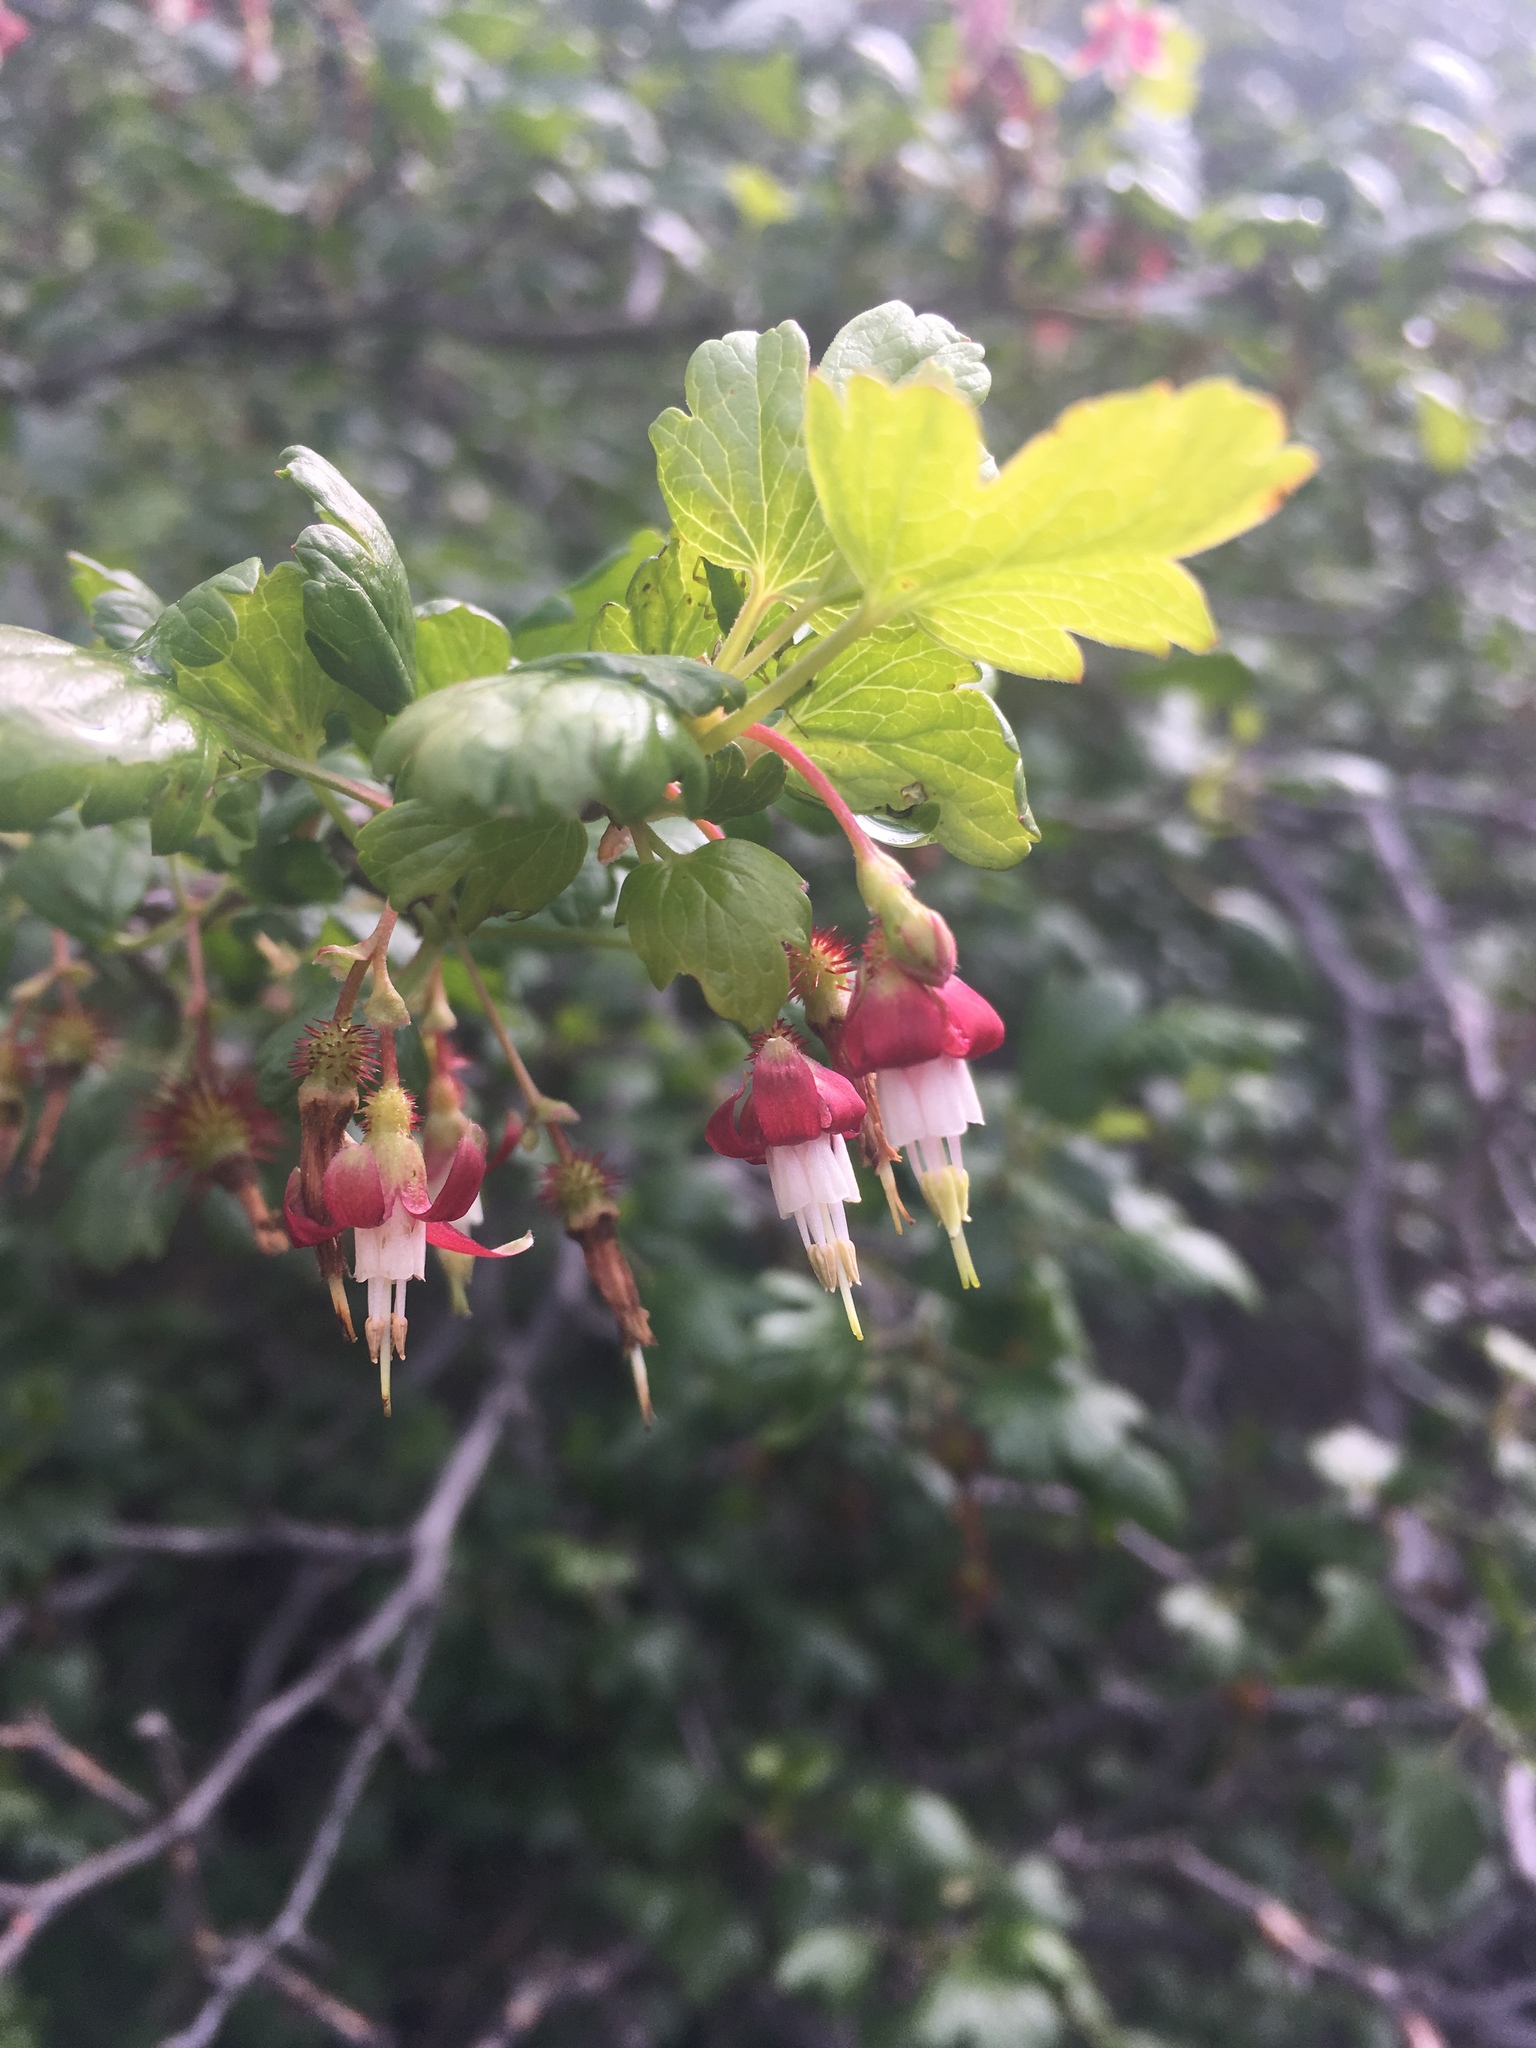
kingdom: Plantae
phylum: Tracheophyta
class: Magnoliopsida
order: Saxifragales
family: Grossulariaceae
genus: Ribes
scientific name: Ribes californicum
